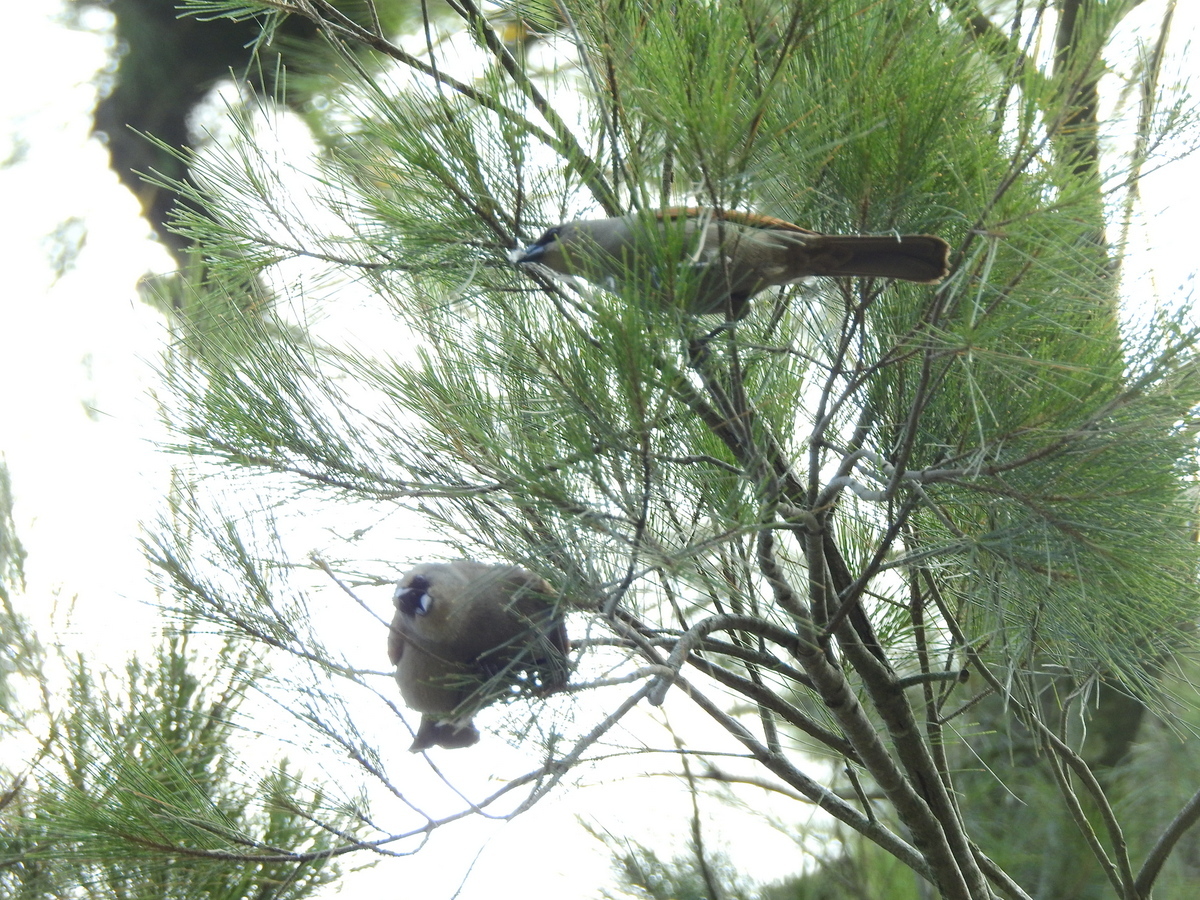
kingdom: Animalia
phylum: Chordata
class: Aves
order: Passeriformes
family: Icteridae
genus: Agelaioides
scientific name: Agelaioides badius
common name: Baywing
